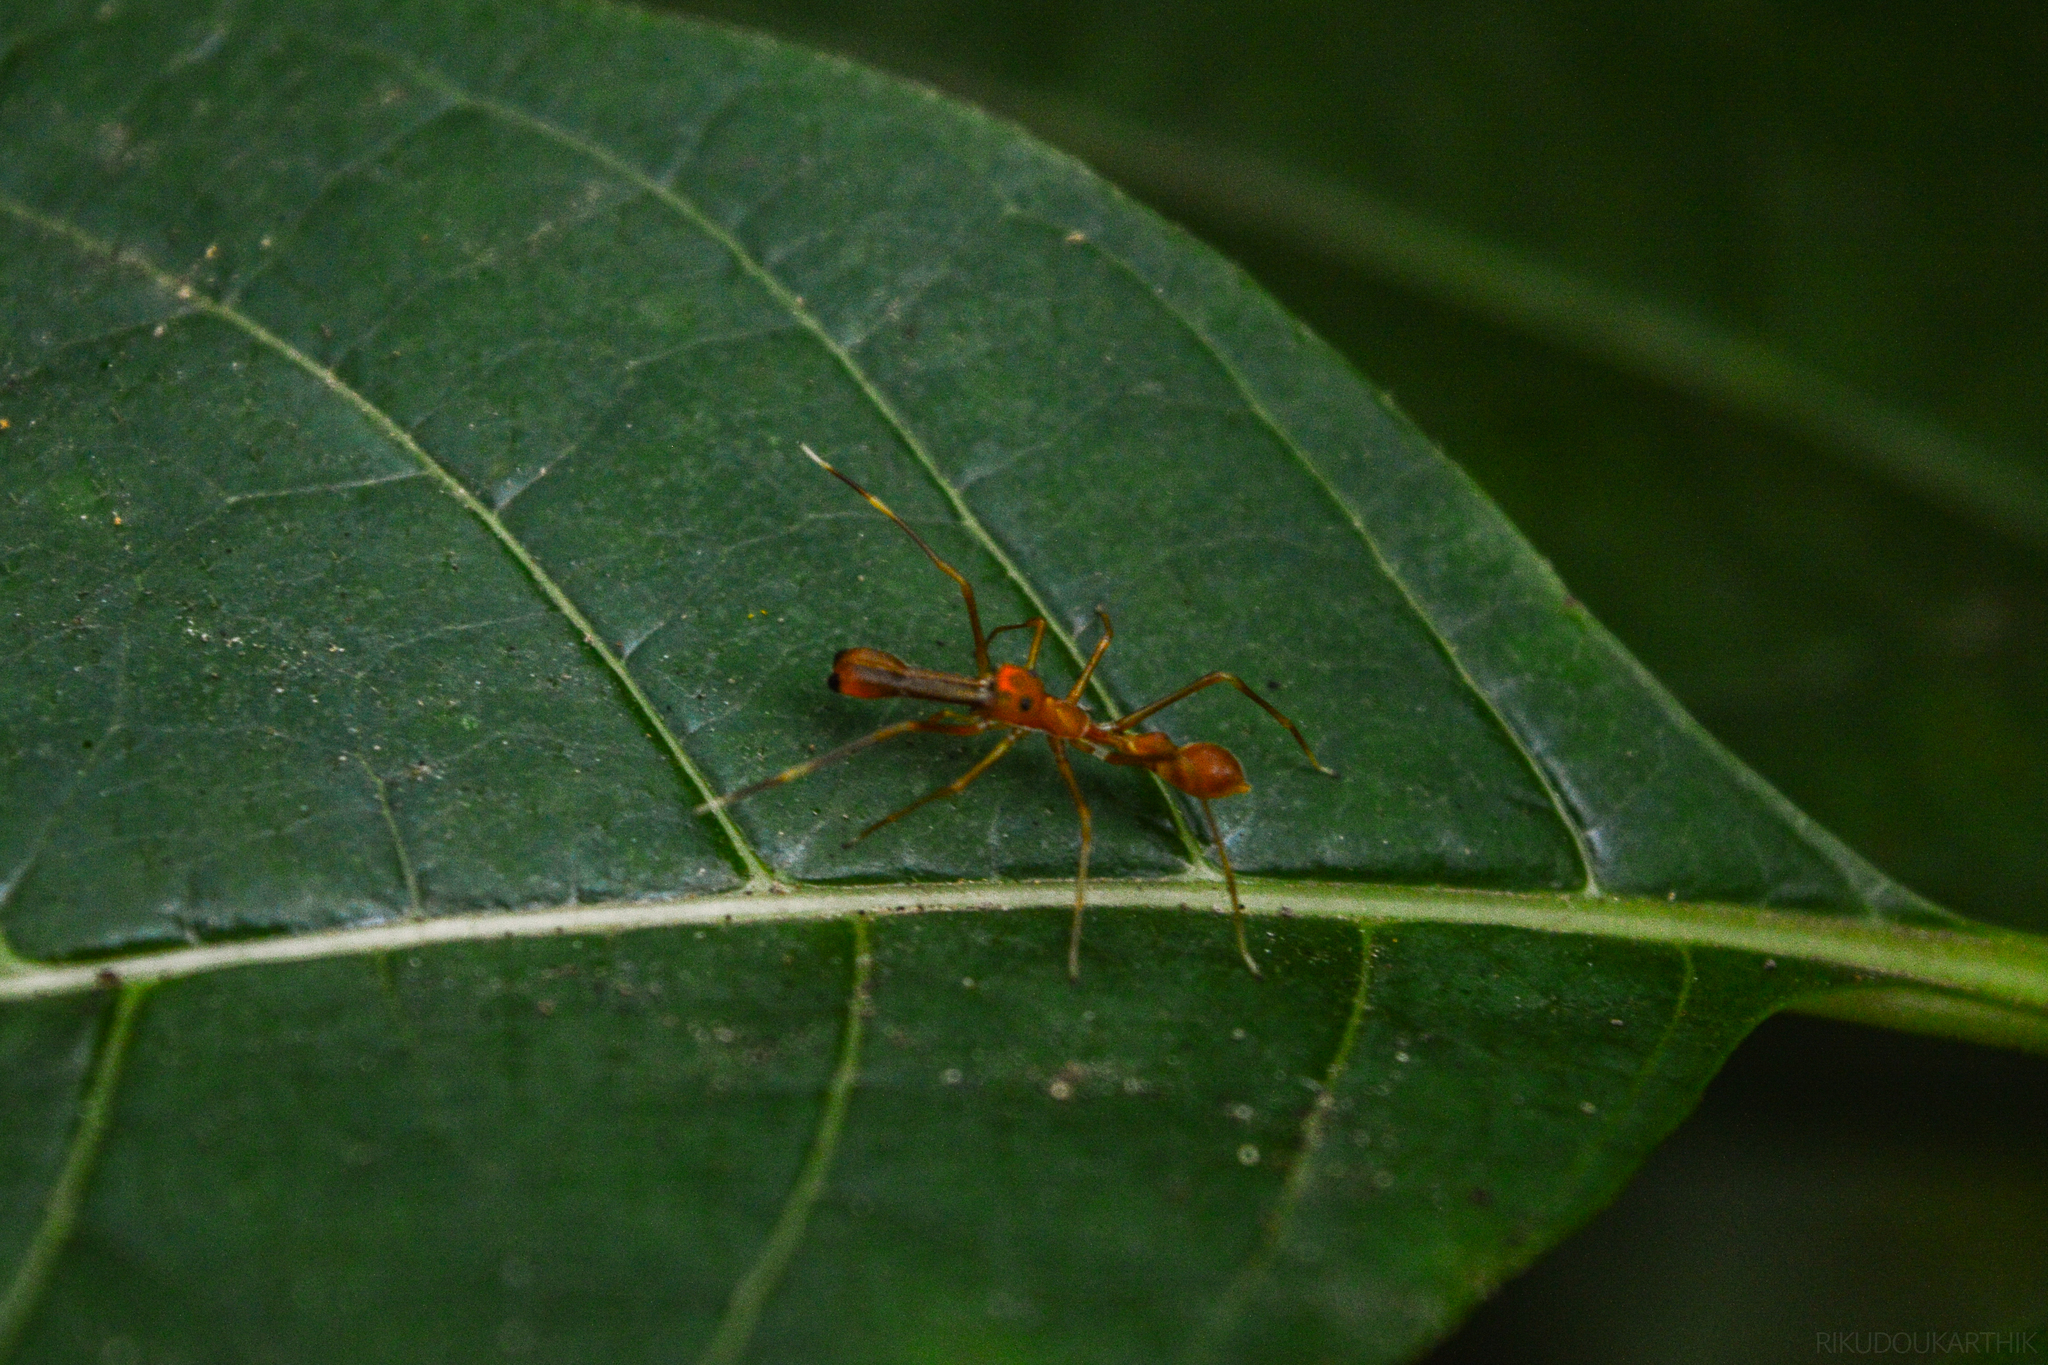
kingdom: Animalia
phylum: Arthropoda
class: Arachnida
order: Araneae
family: Salticidae
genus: Myrmaplata
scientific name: Myrmaplata plataleoides
